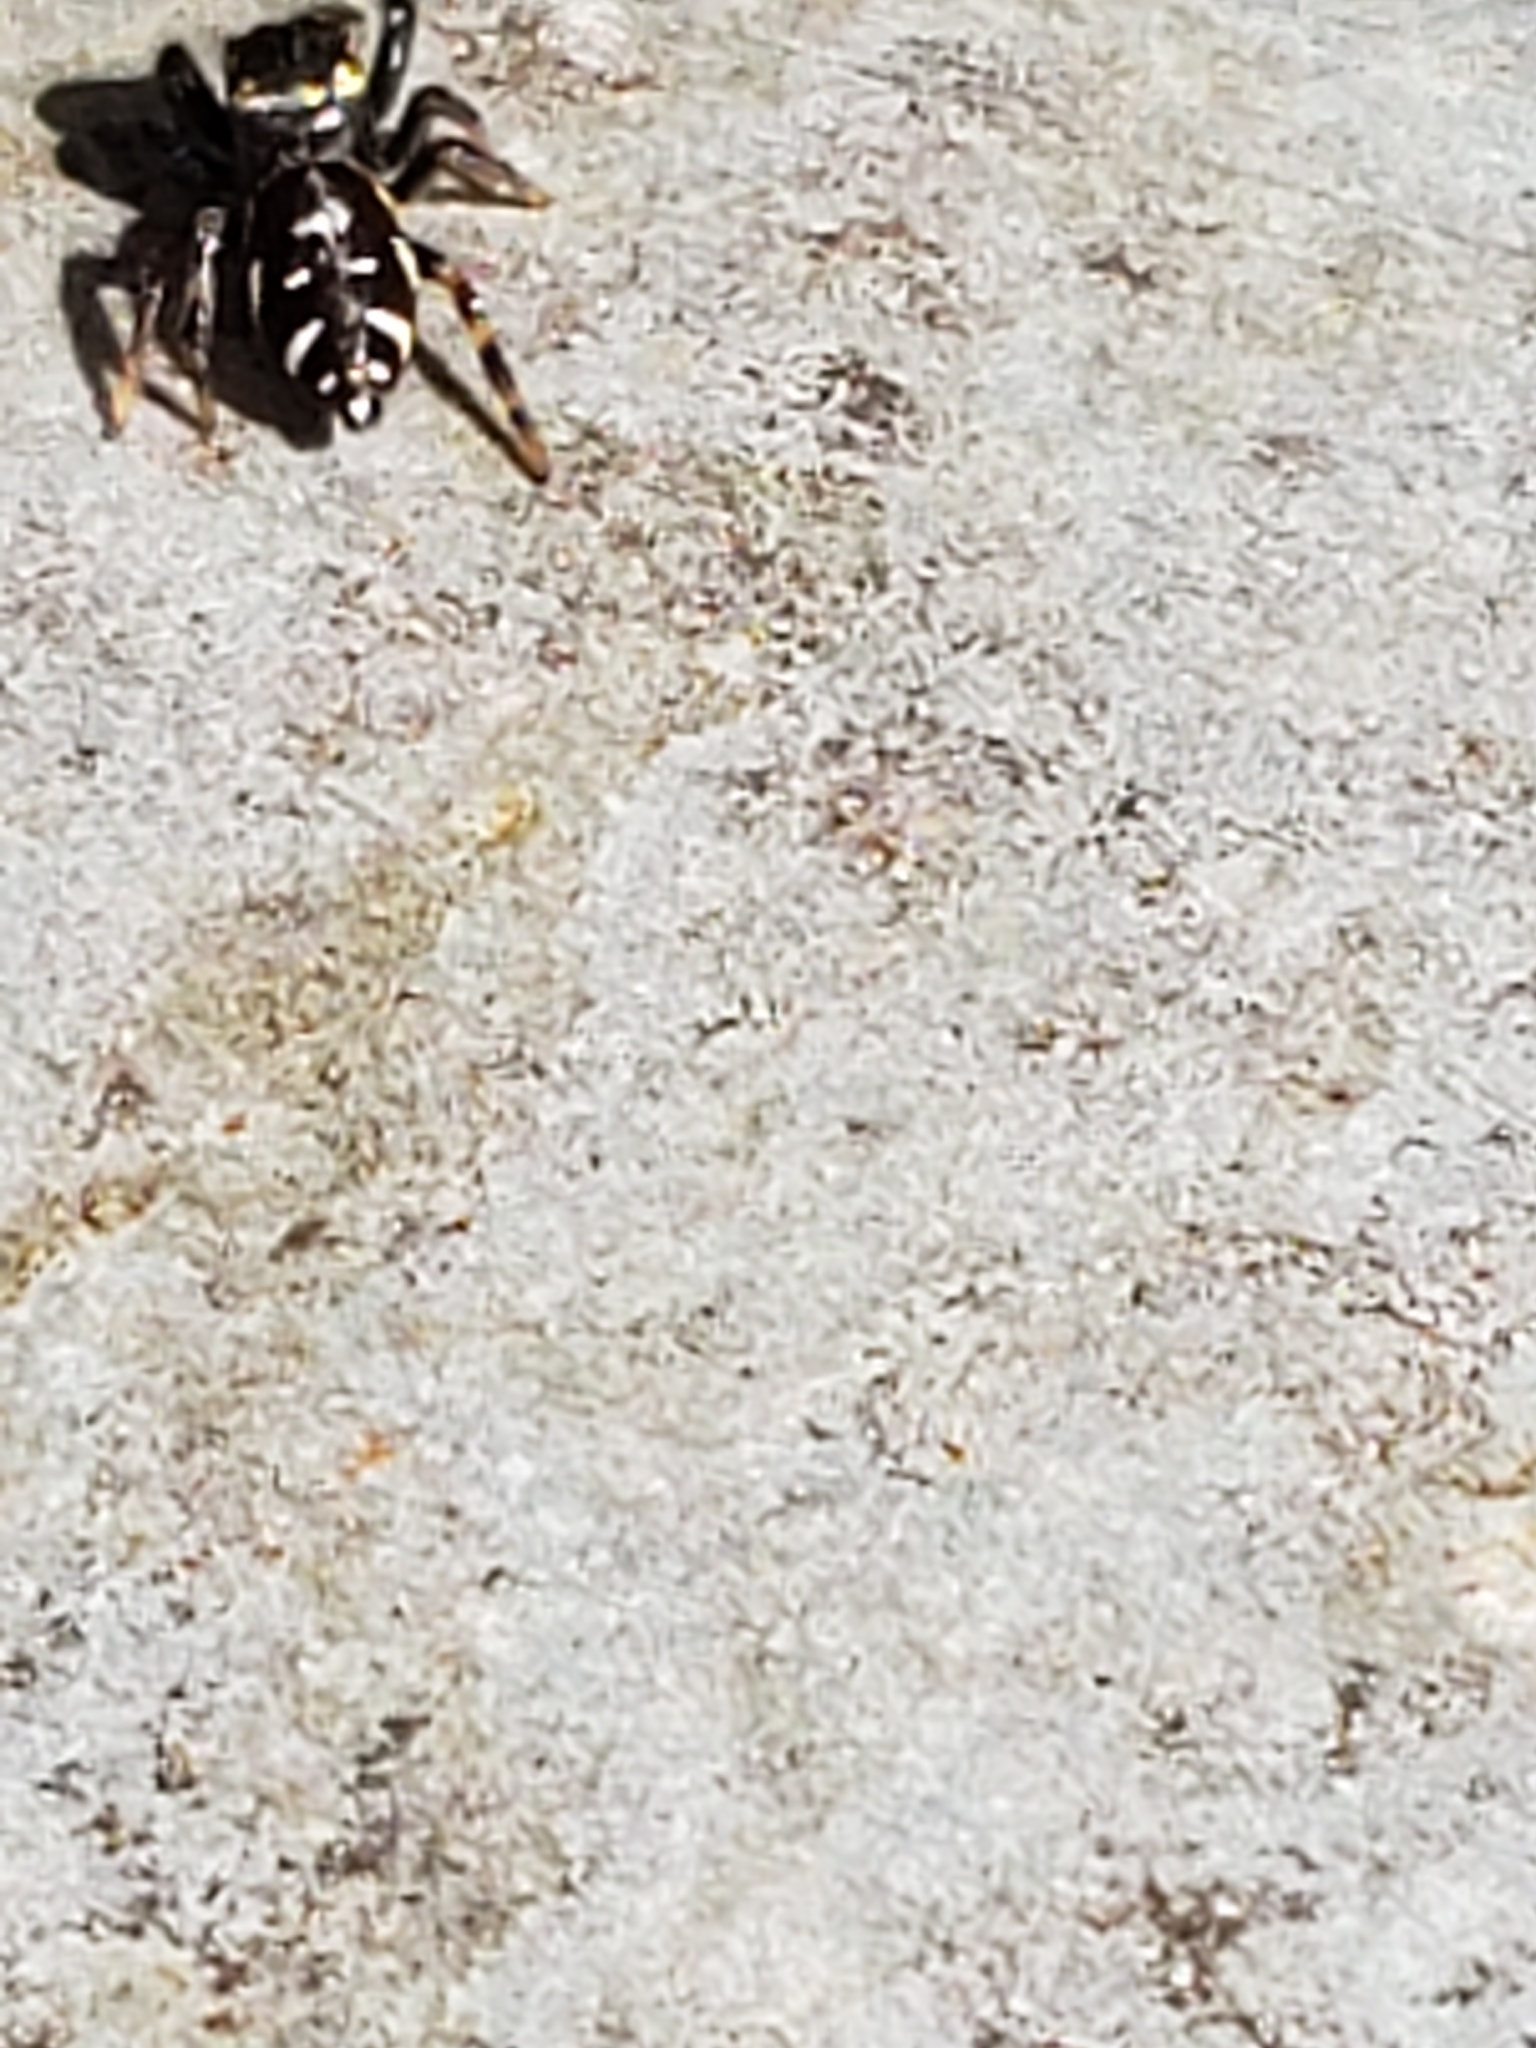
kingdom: Animalia
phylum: Arthropoda
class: Arachnida
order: Araneae
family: Salticidae
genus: Paraphidippus
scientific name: Paraphidippus aurantius
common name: Jumping spiders
